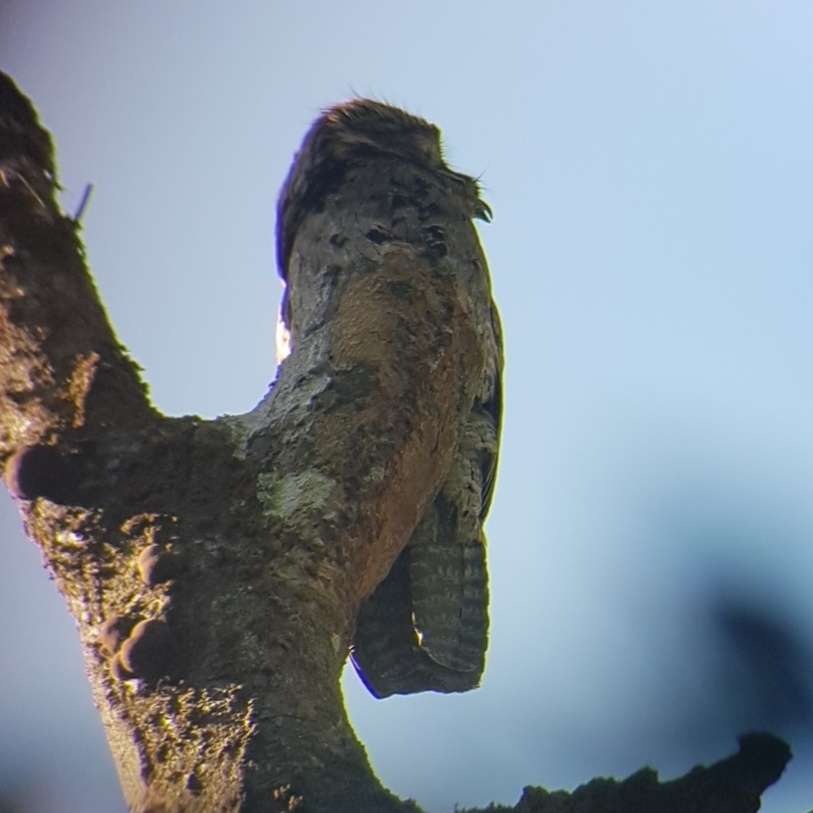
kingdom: Animalia
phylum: Chordata
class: Aves
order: Nyctibiiformes
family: Nyctibiidae
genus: Nyctibius
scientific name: Nyctibius griseus
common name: Common potoo
